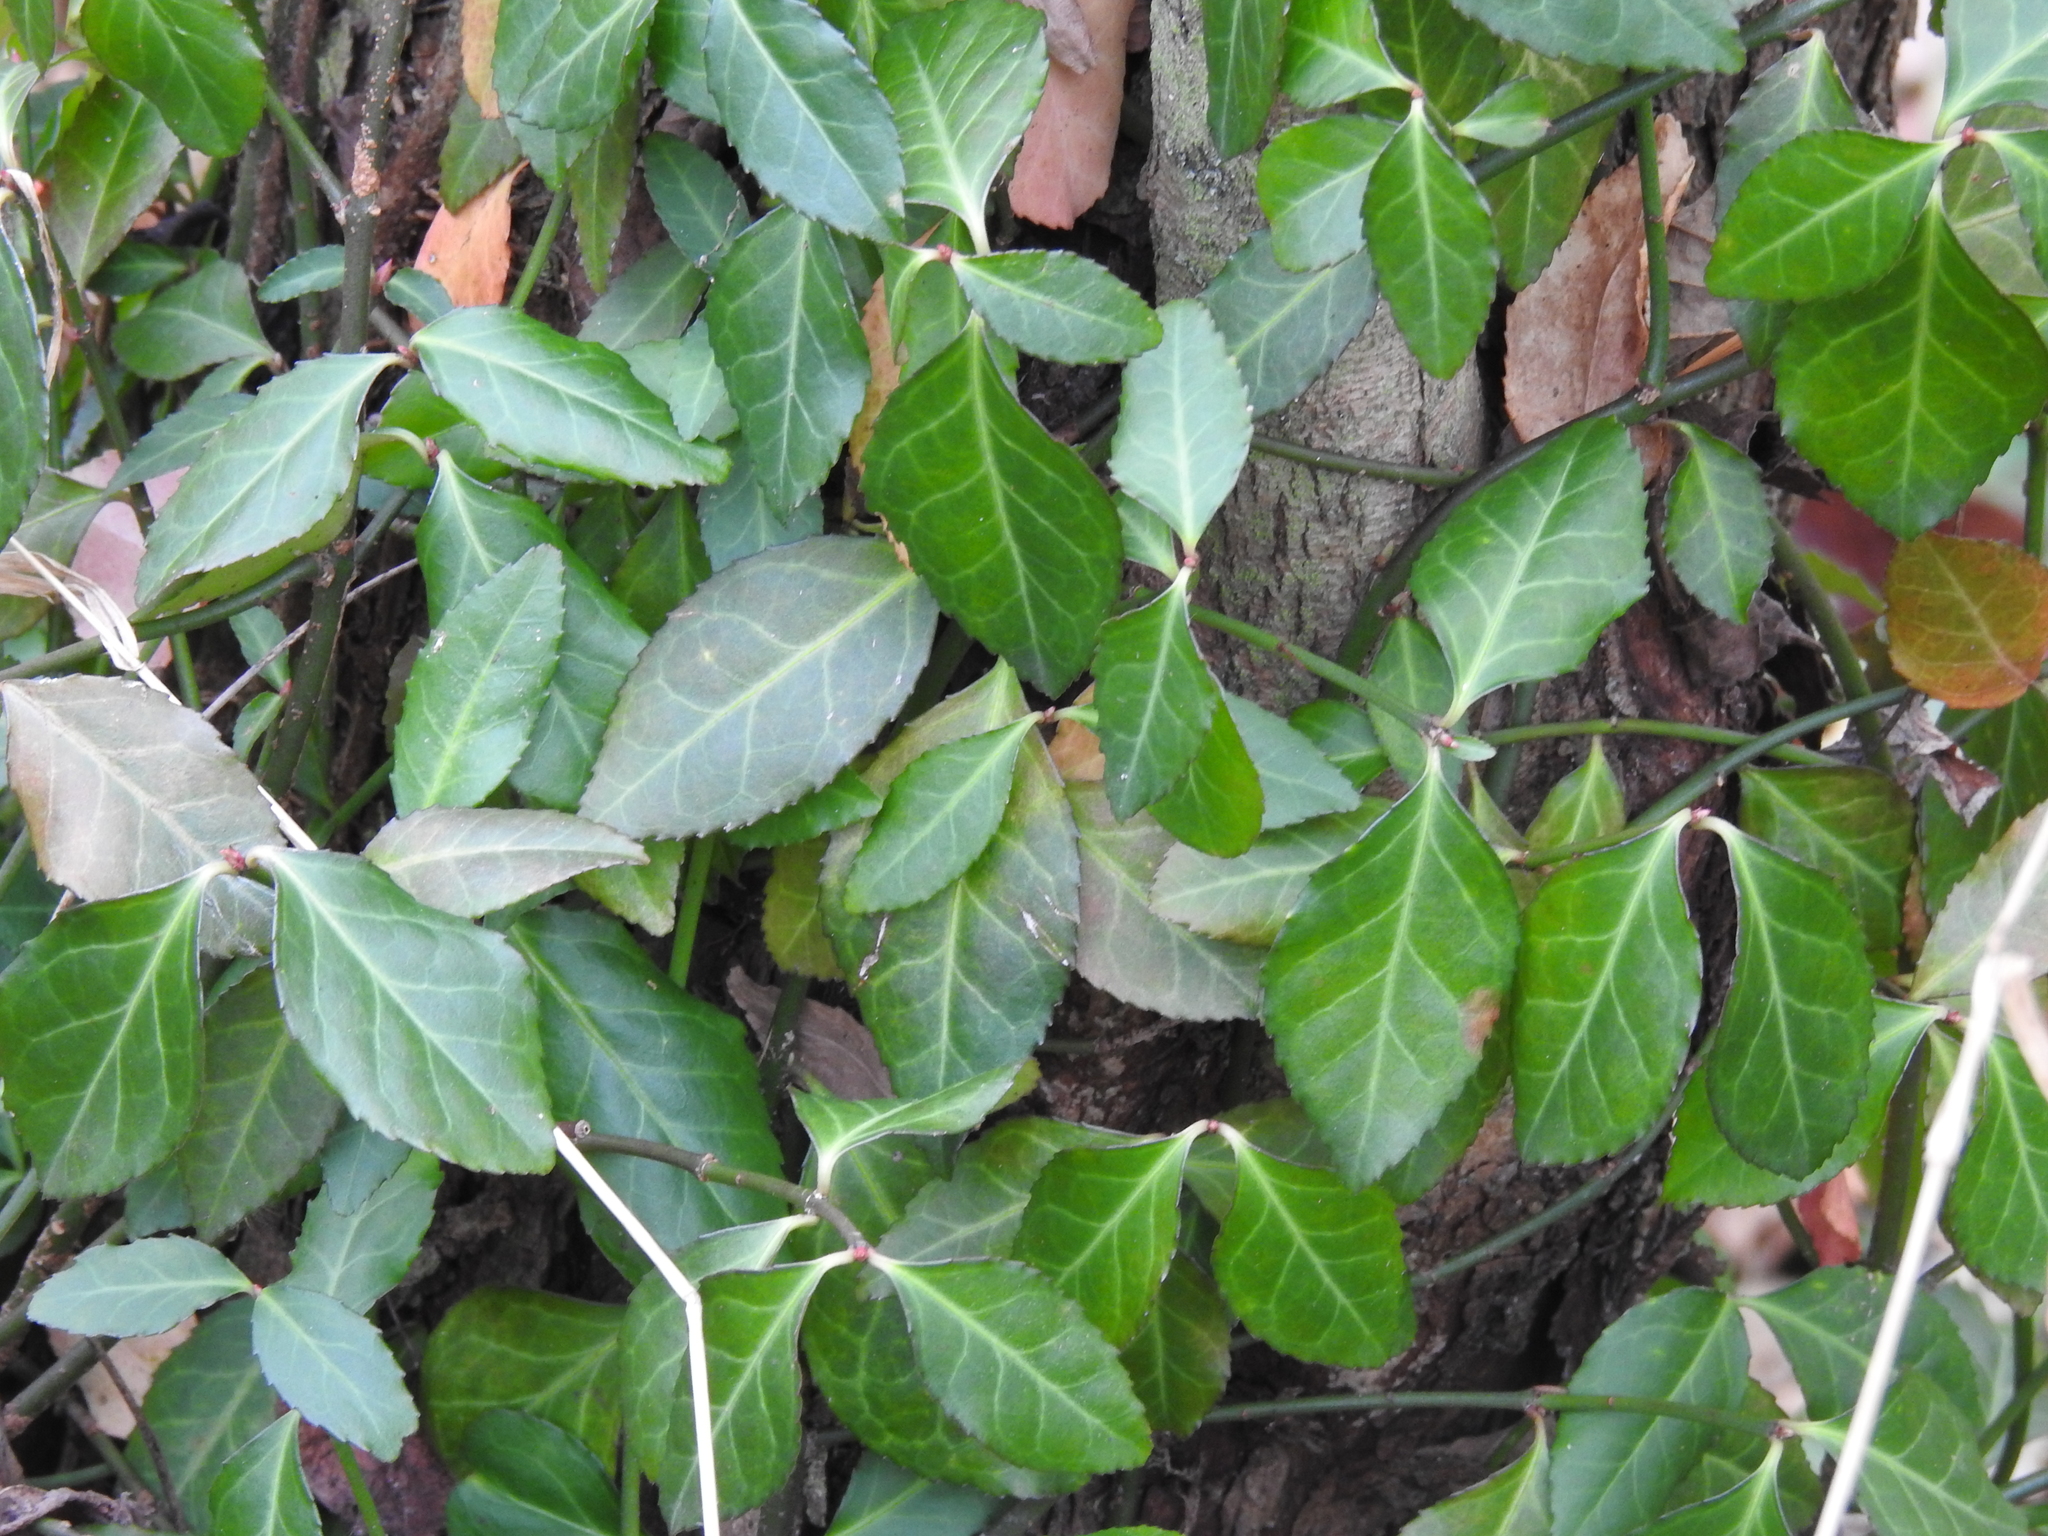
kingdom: Plantae
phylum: Tracheophyta
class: Magnoliopsida
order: Celastrales
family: Celastraceae
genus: Euonymus
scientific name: Euonymus fortunei
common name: Climbing euonymus
